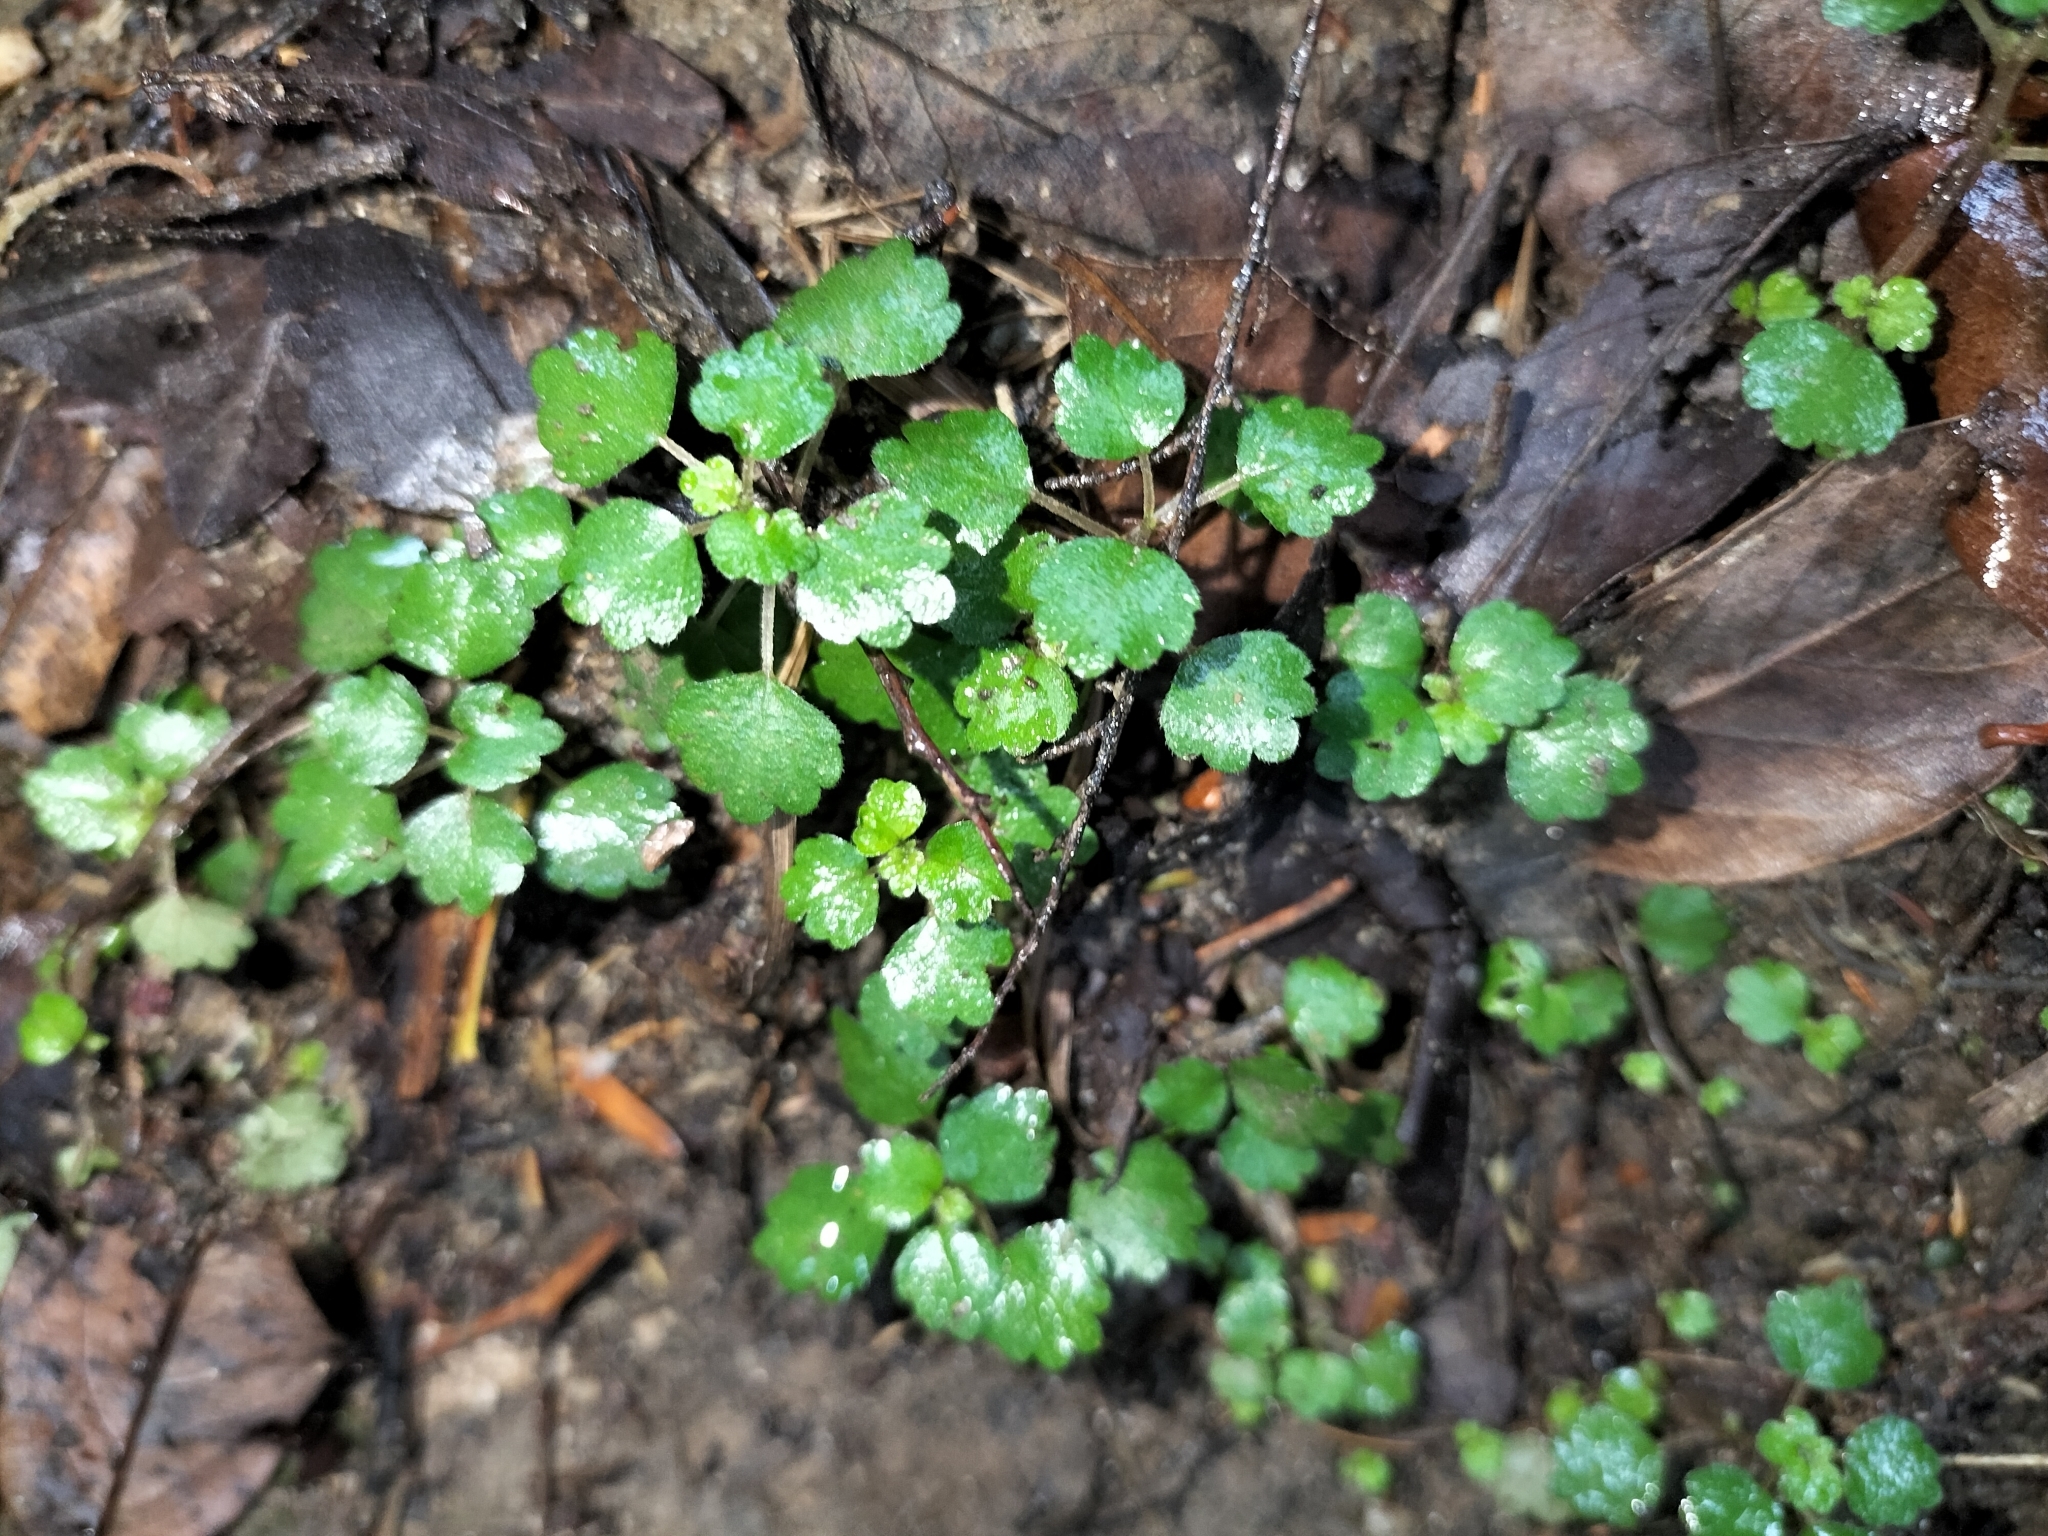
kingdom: Plantae
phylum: Tracheophyta
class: Magnoliopsida
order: Rosales
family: Urticaceae
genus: Australina
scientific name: Australina pusilla
